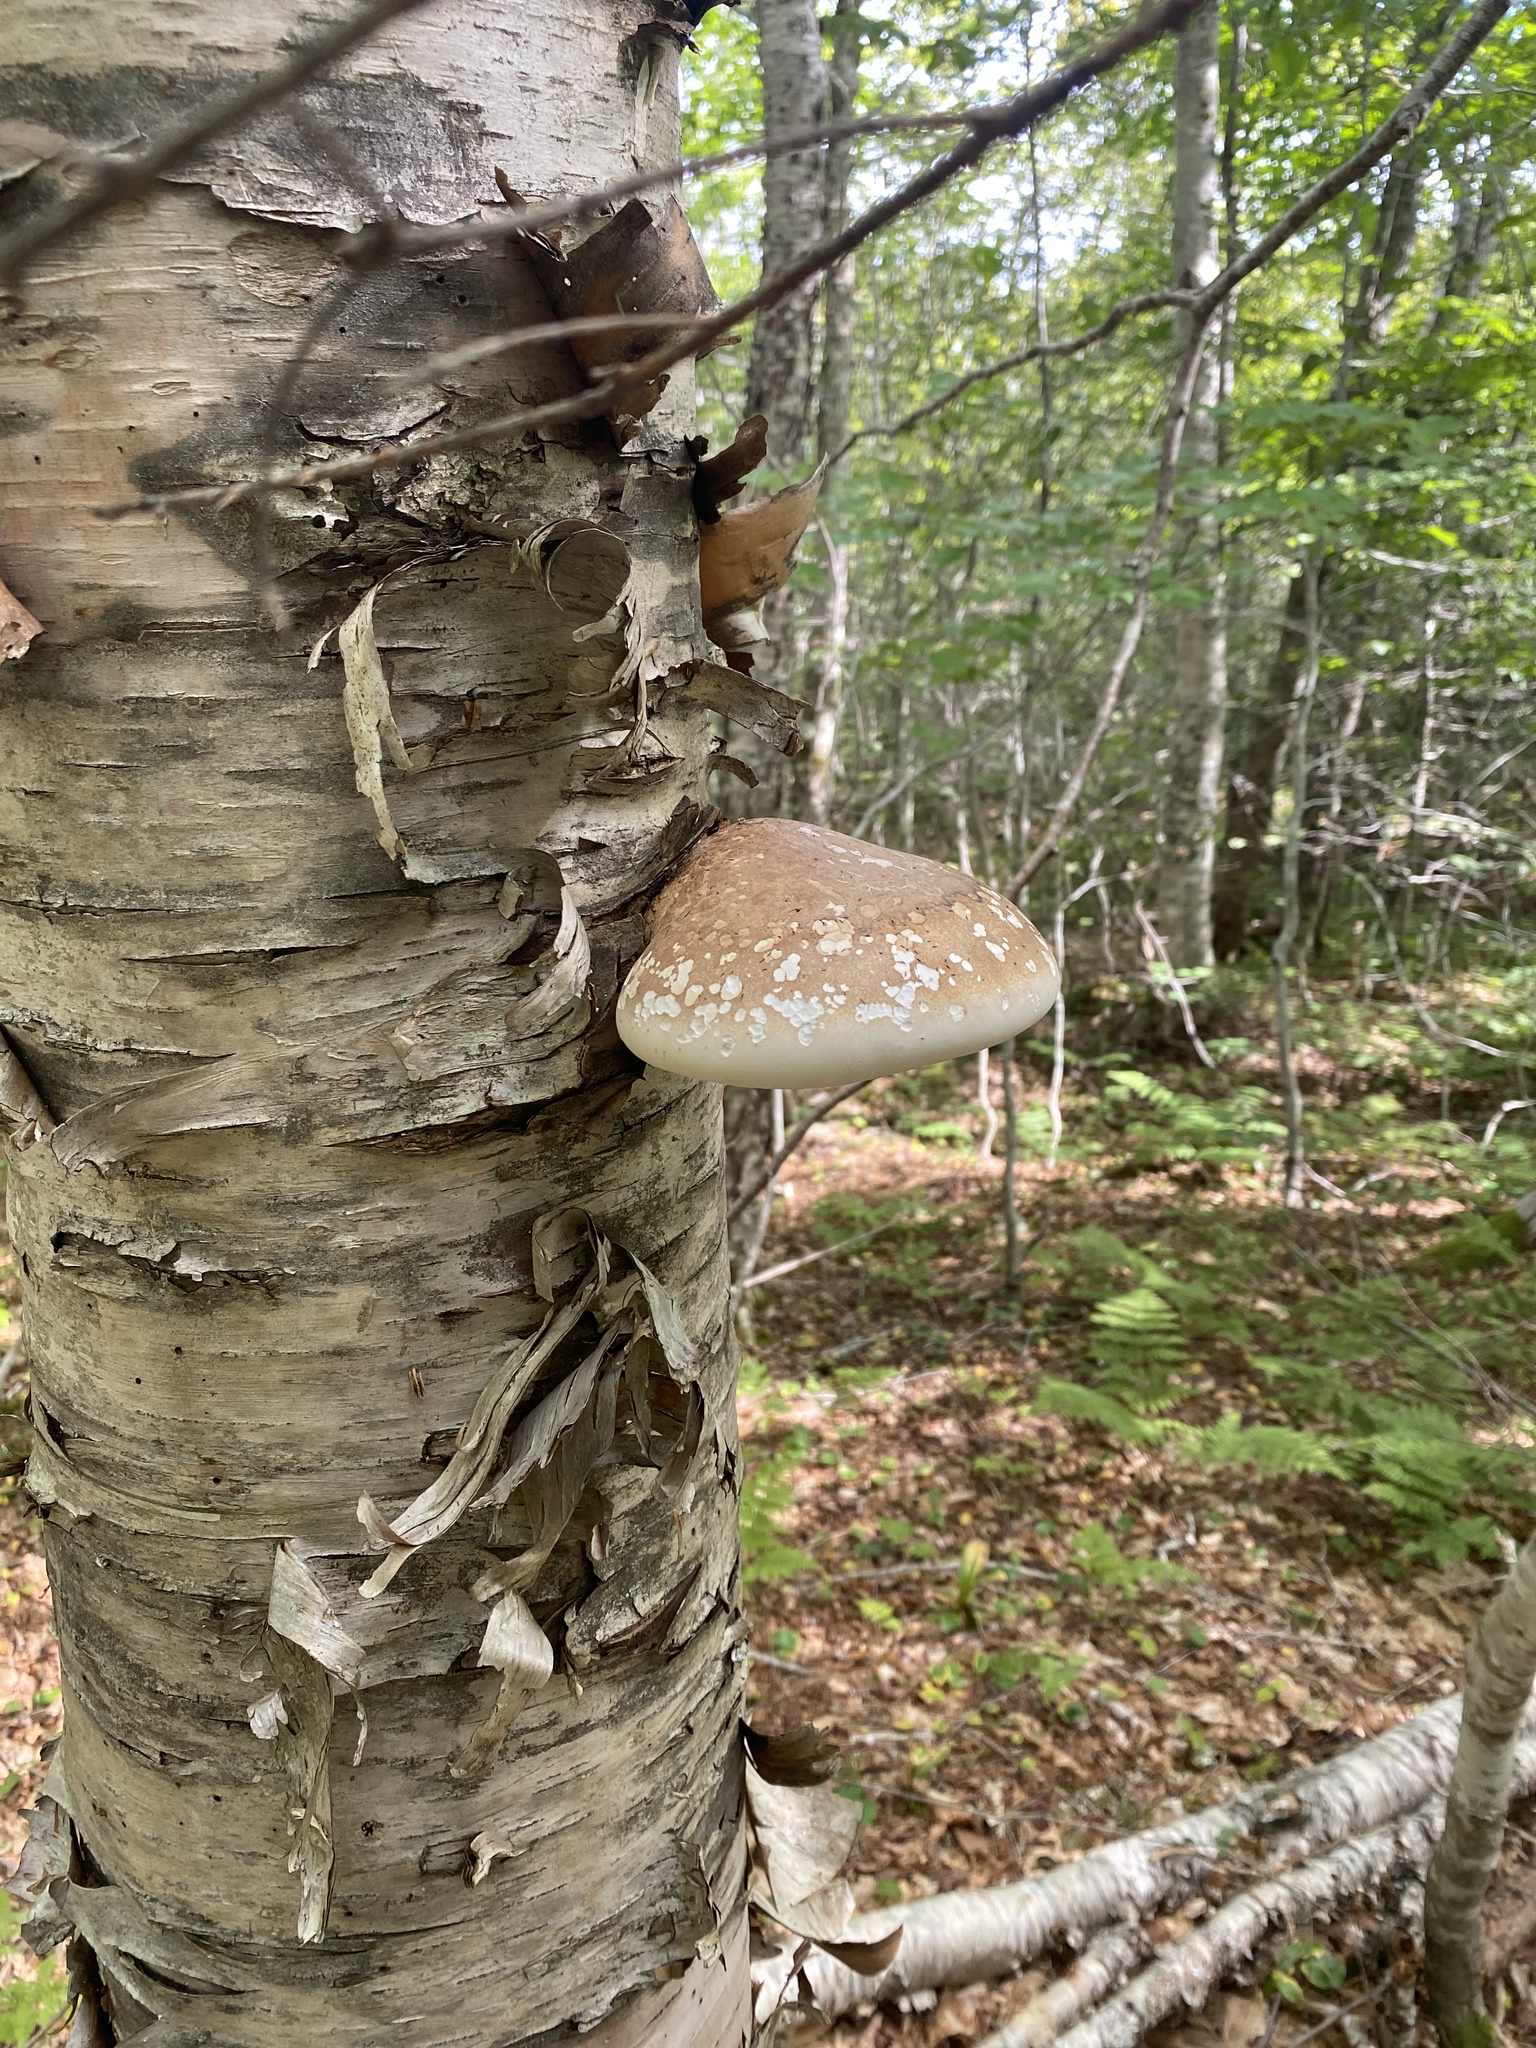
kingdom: Fungi
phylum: Basidiomycota
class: Agaricomycetes
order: Polyporales
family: Fomitopsidaceae
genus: Fomitopsis
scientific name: Fomitopsis betulina
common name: Birch polypore
